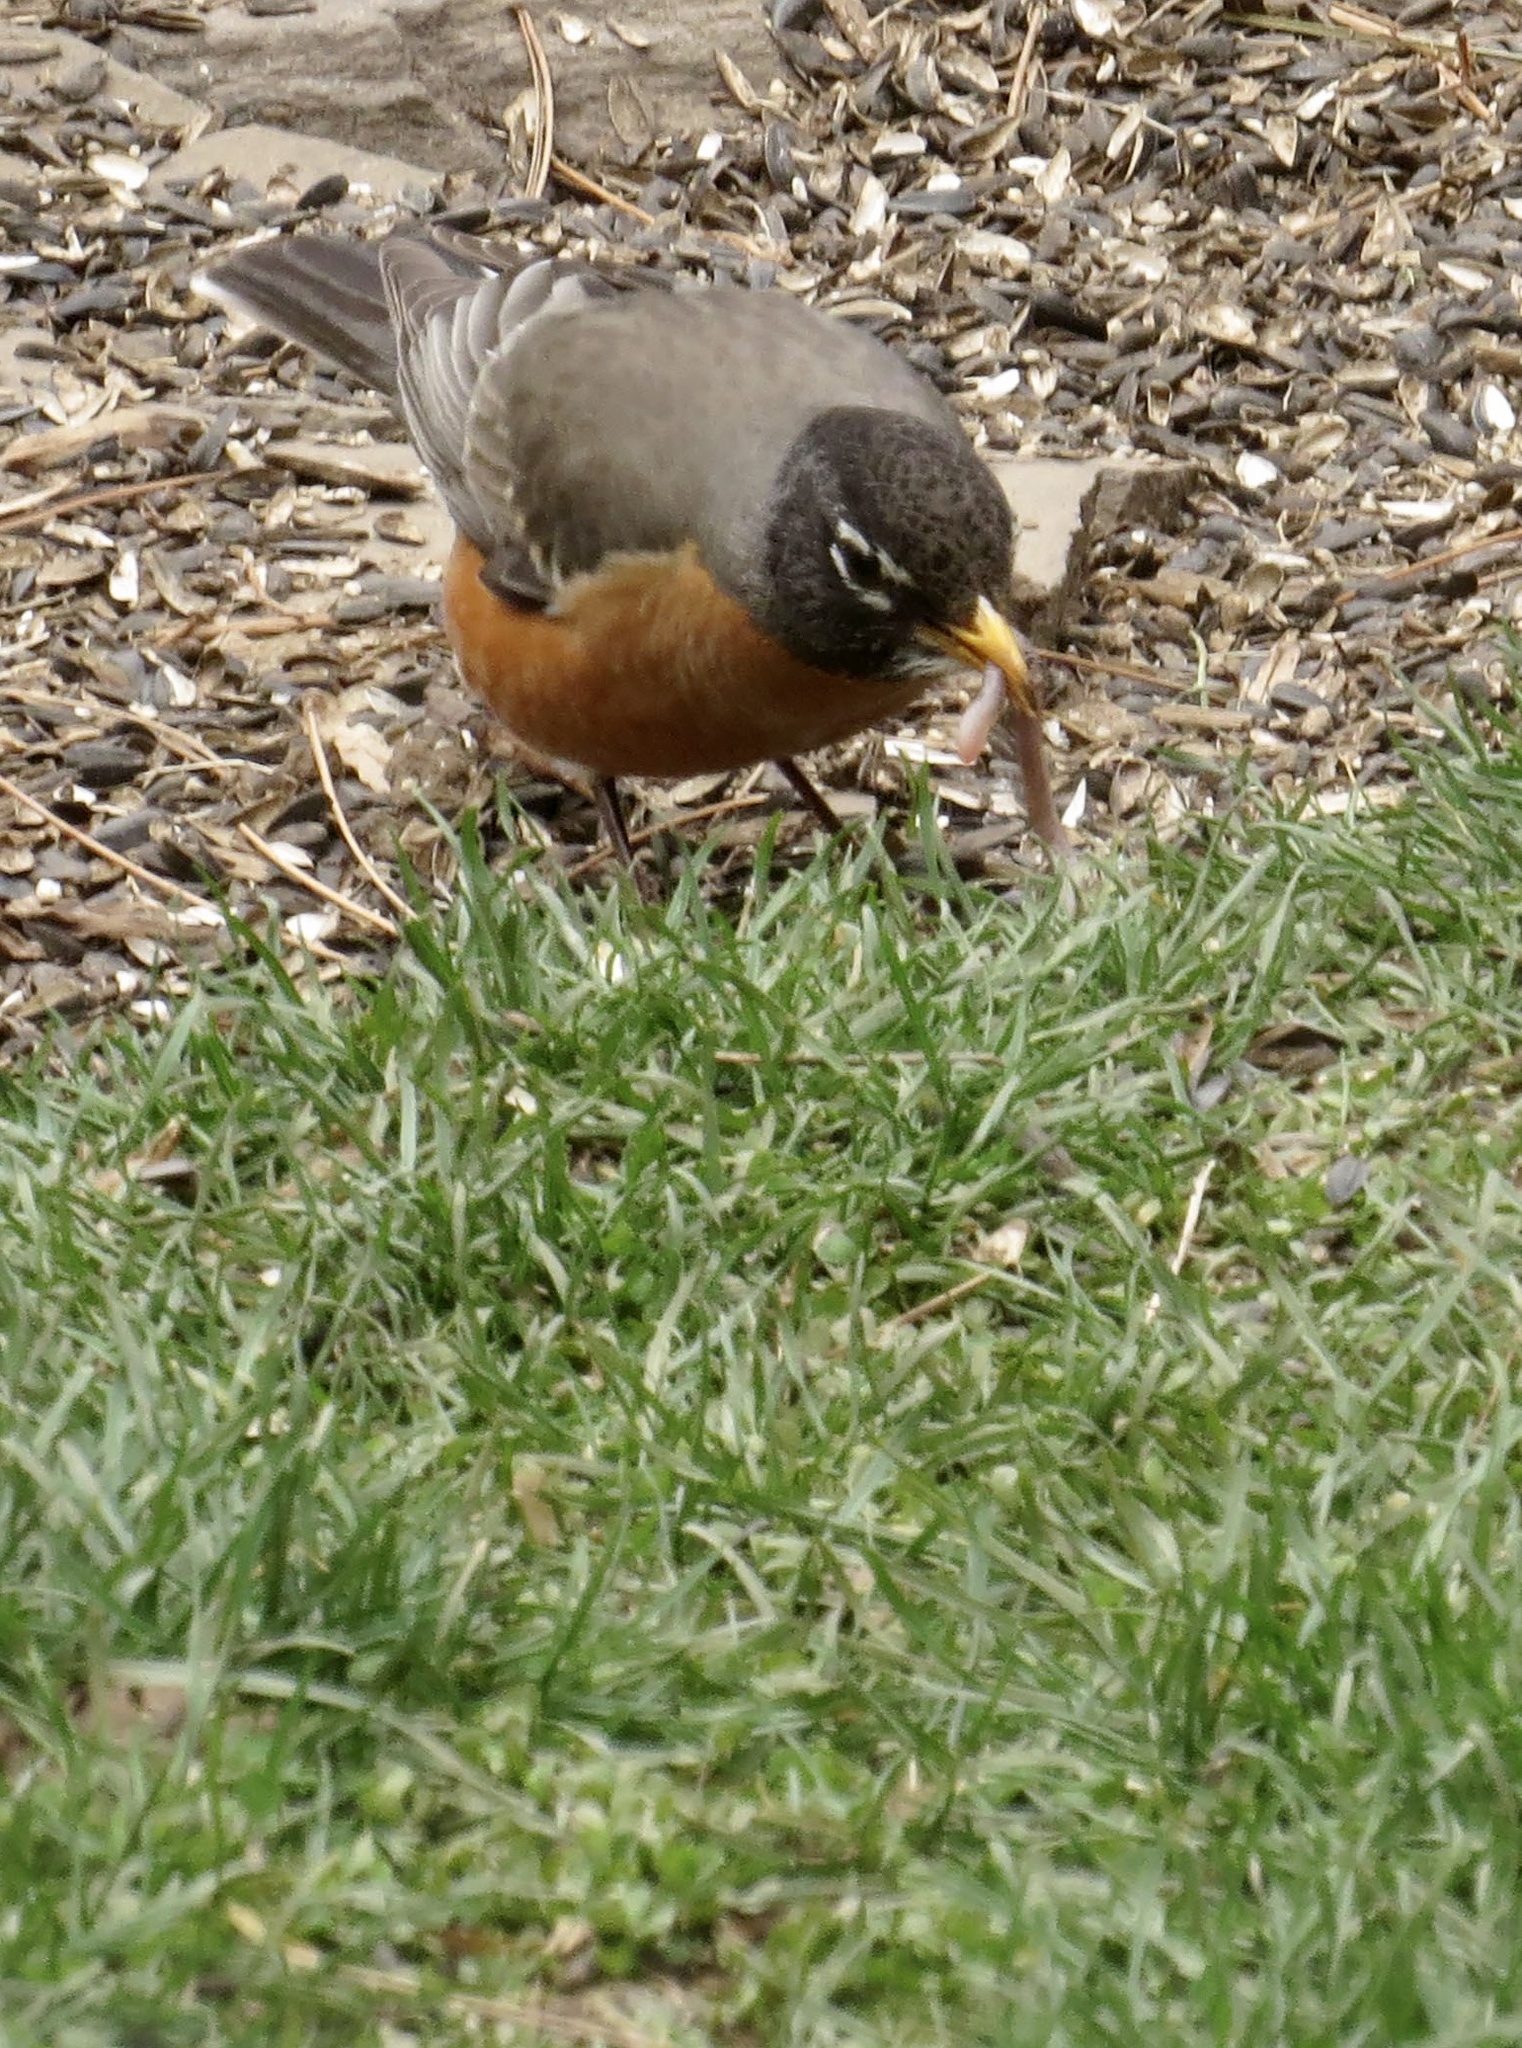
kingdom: Animalia
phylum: Chordata
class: Aves
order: Passeriformes
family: Turdidae
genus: Turdus
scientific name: Turdus migratorius
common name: American robin
